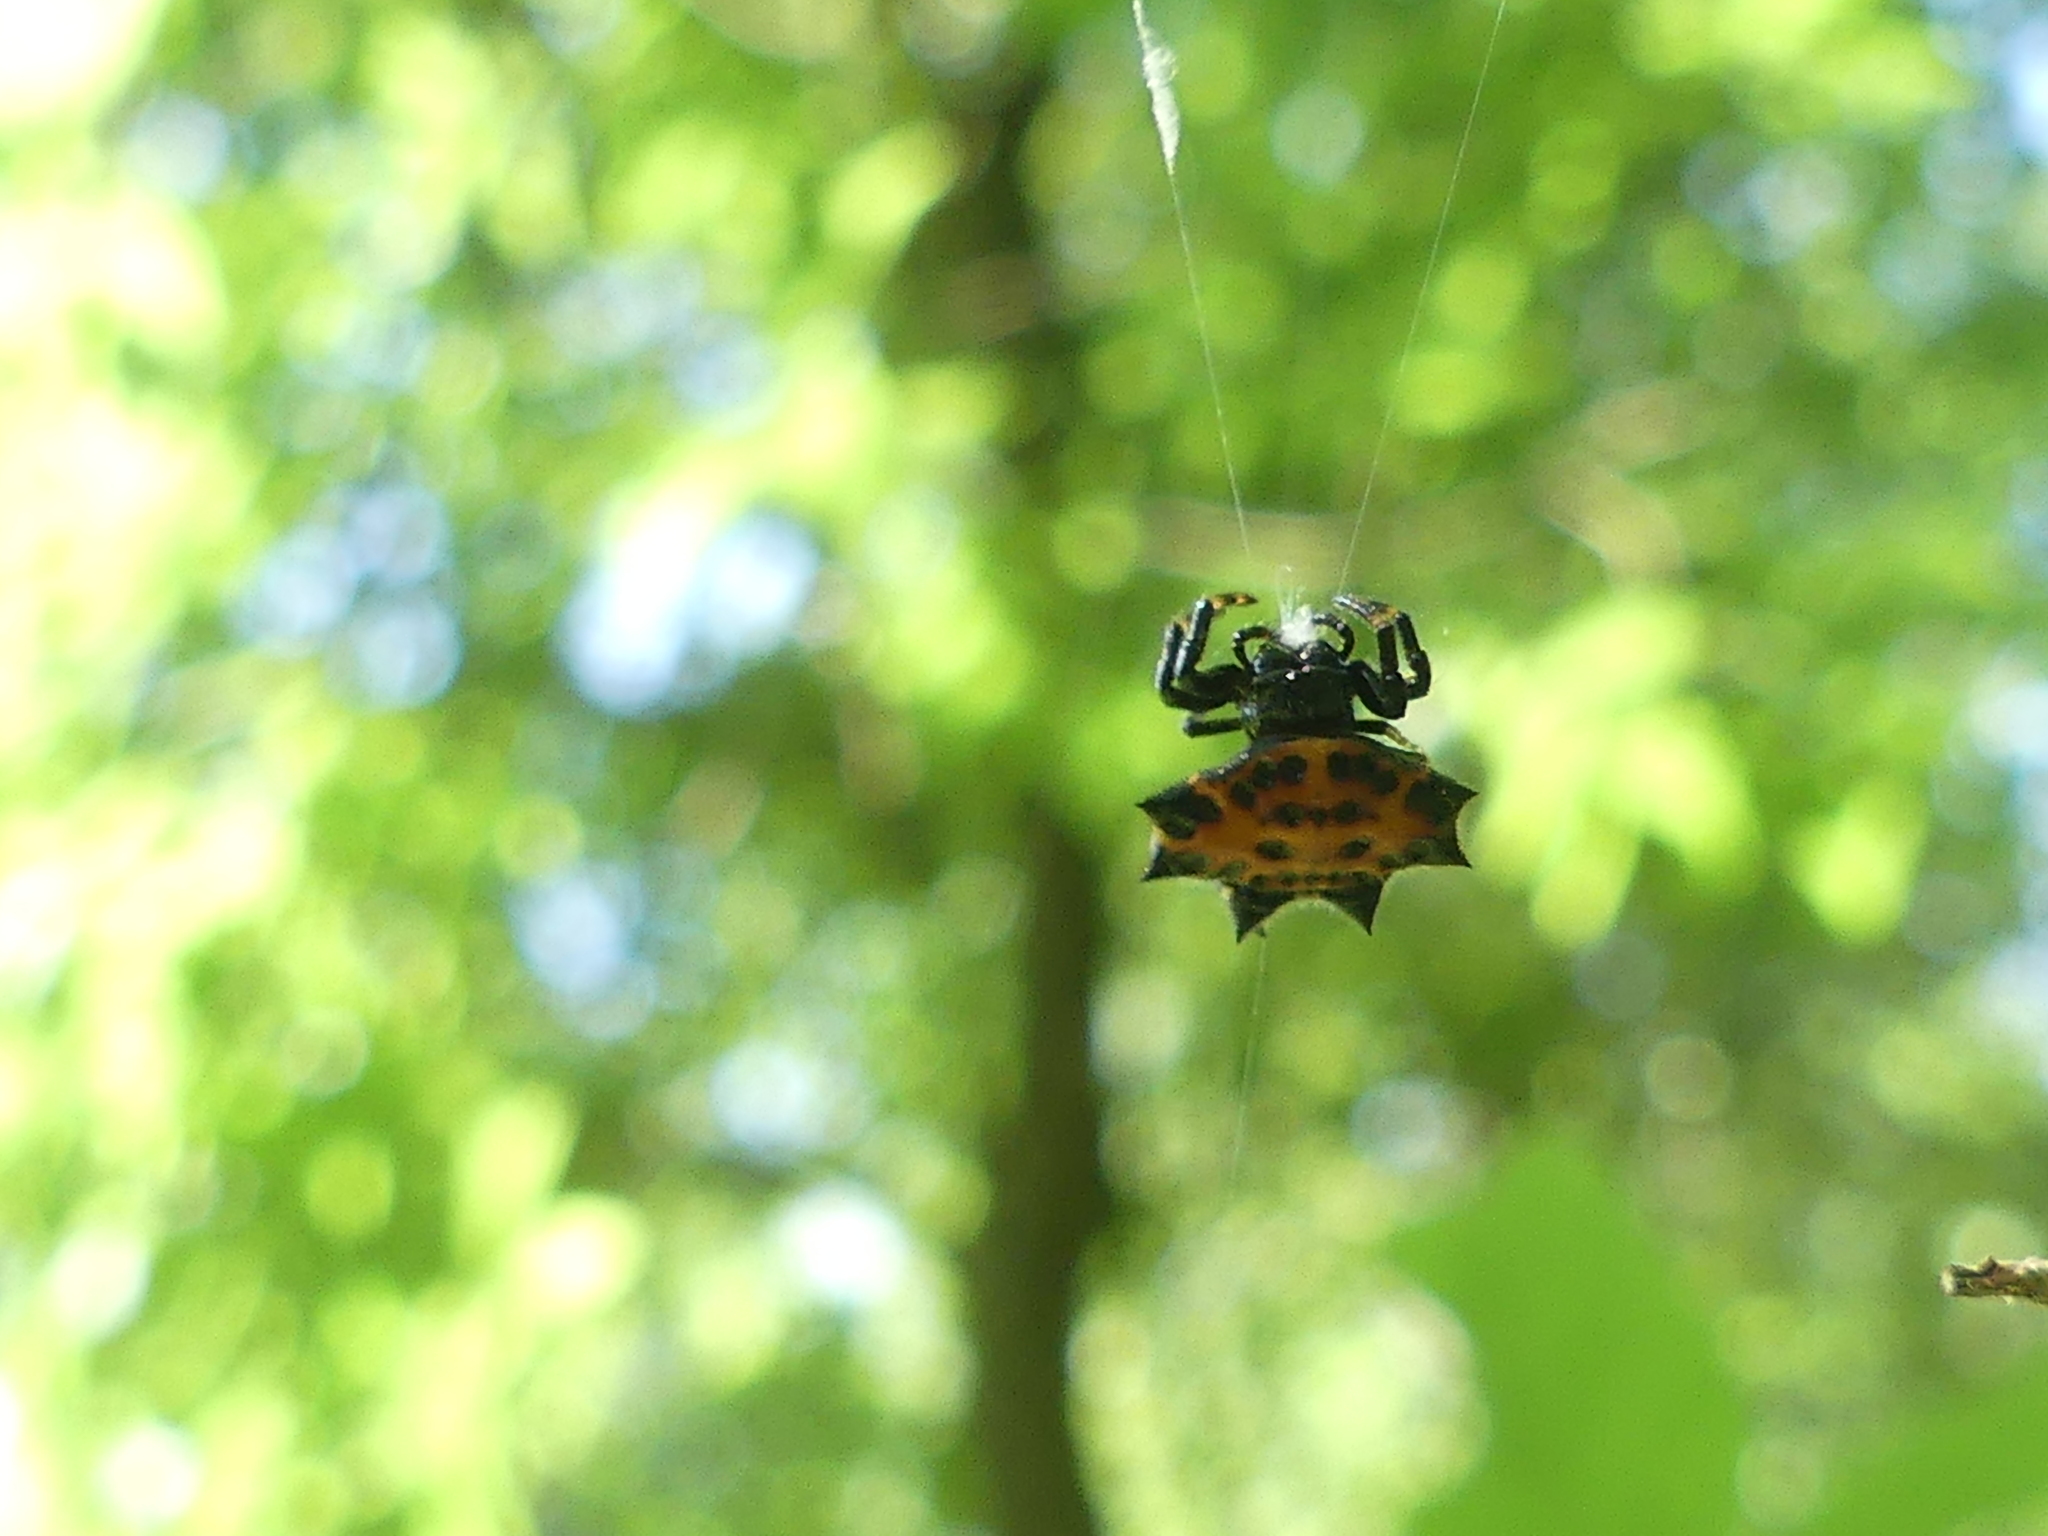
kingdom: Animalia
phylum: Arthropoda
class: Arachnida
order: Araneae
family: Araneidae
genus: Gasteracantha
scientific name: Gasteracantha cancriformis
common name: Orb weavers
